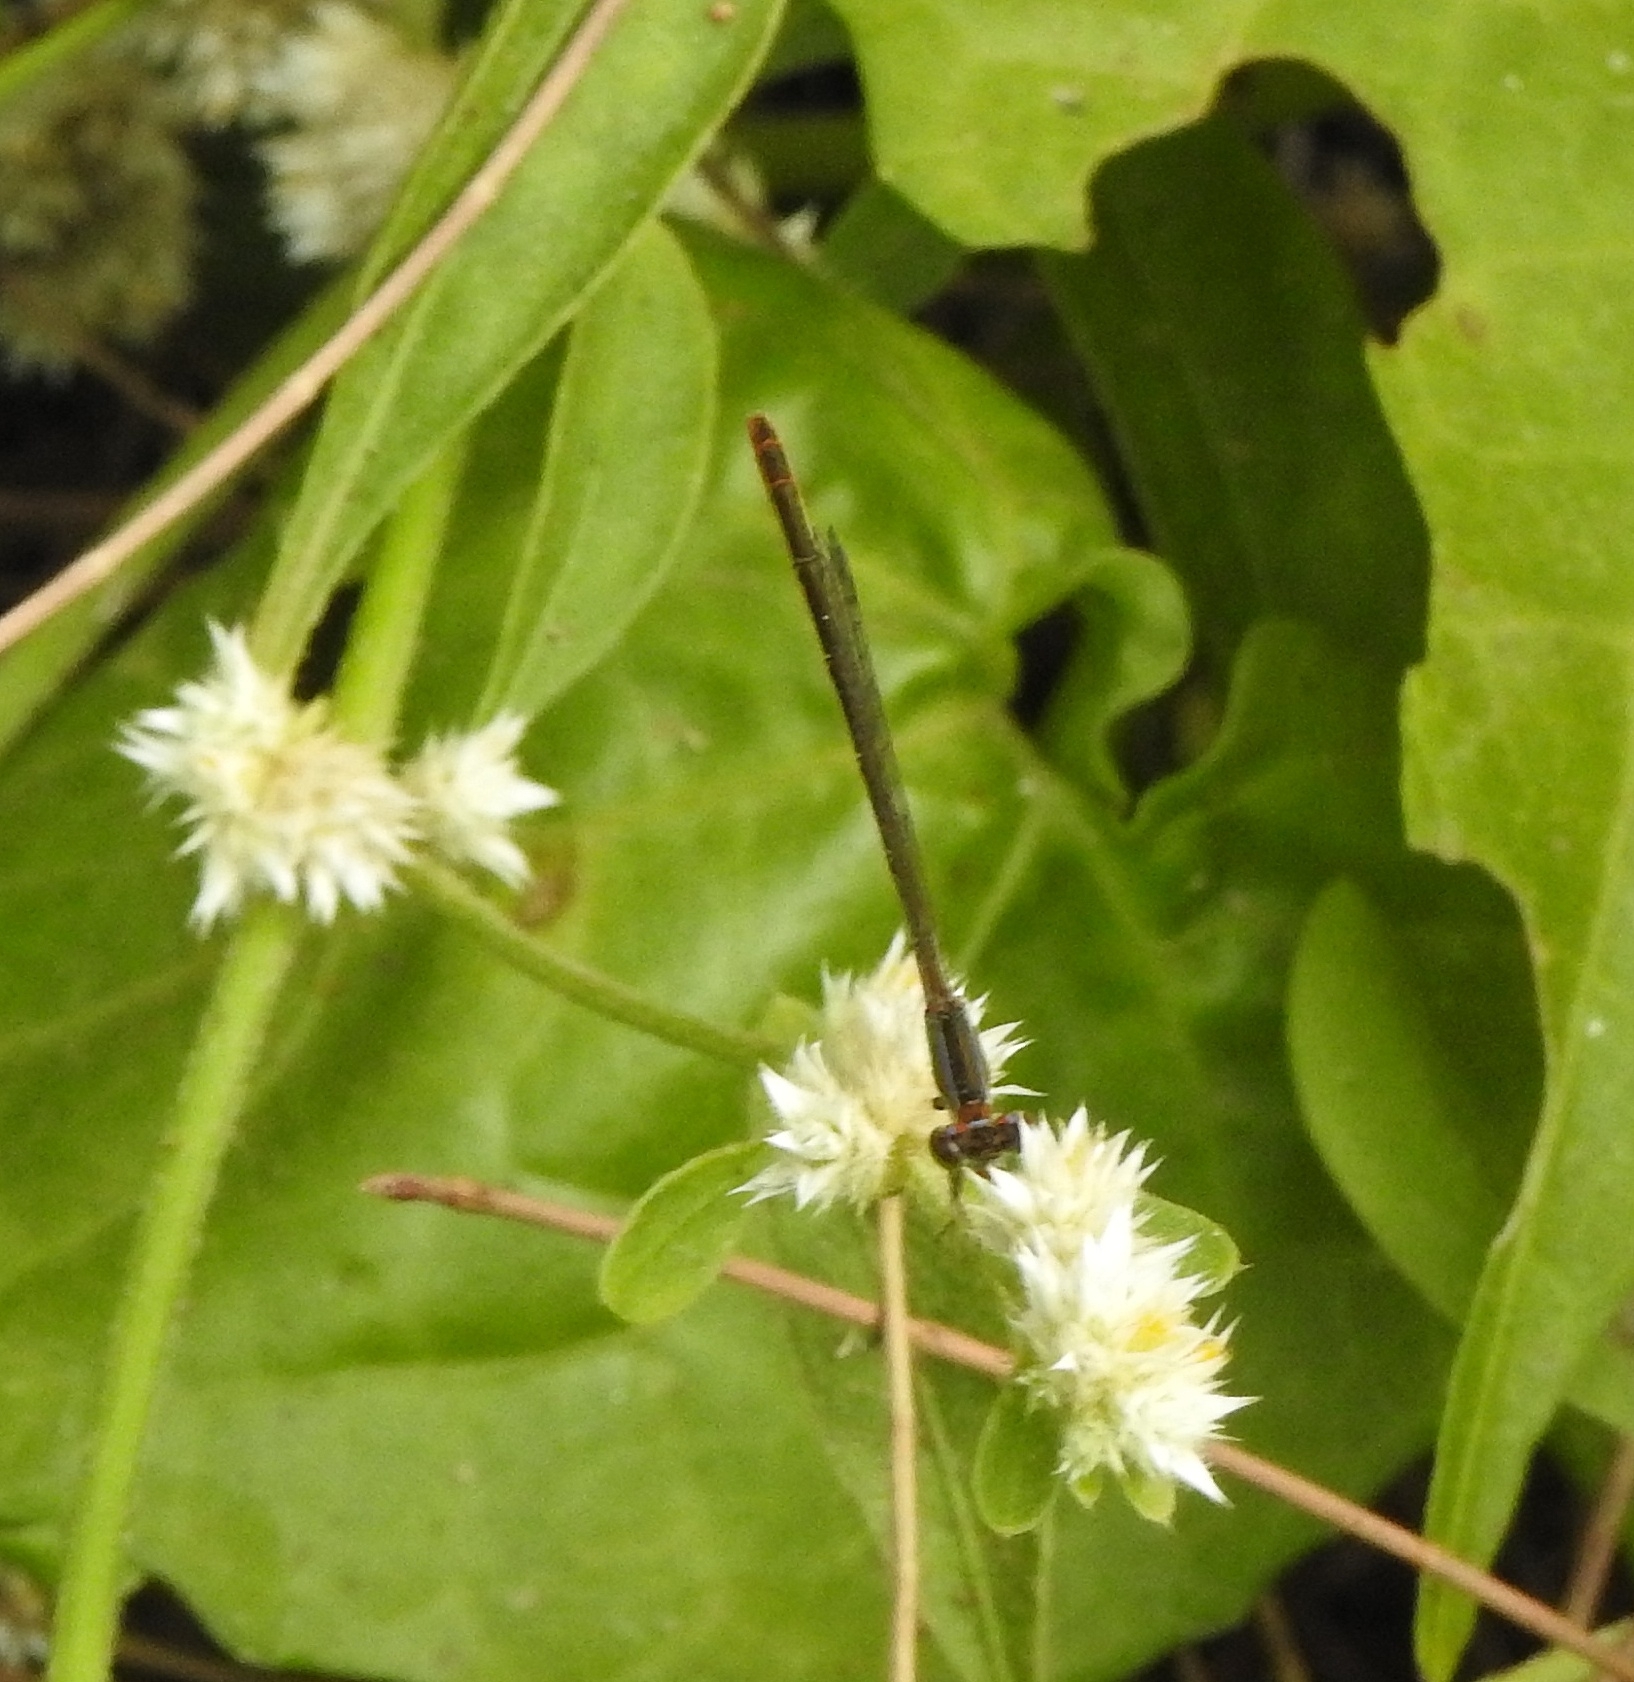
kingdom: Animalia
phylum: Arthropoda
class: Insecta
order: Odonata
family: Coenagrionidae
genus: Agriocnemis
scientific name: Agriocnemis pygmaea
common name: Pygmy wisp
